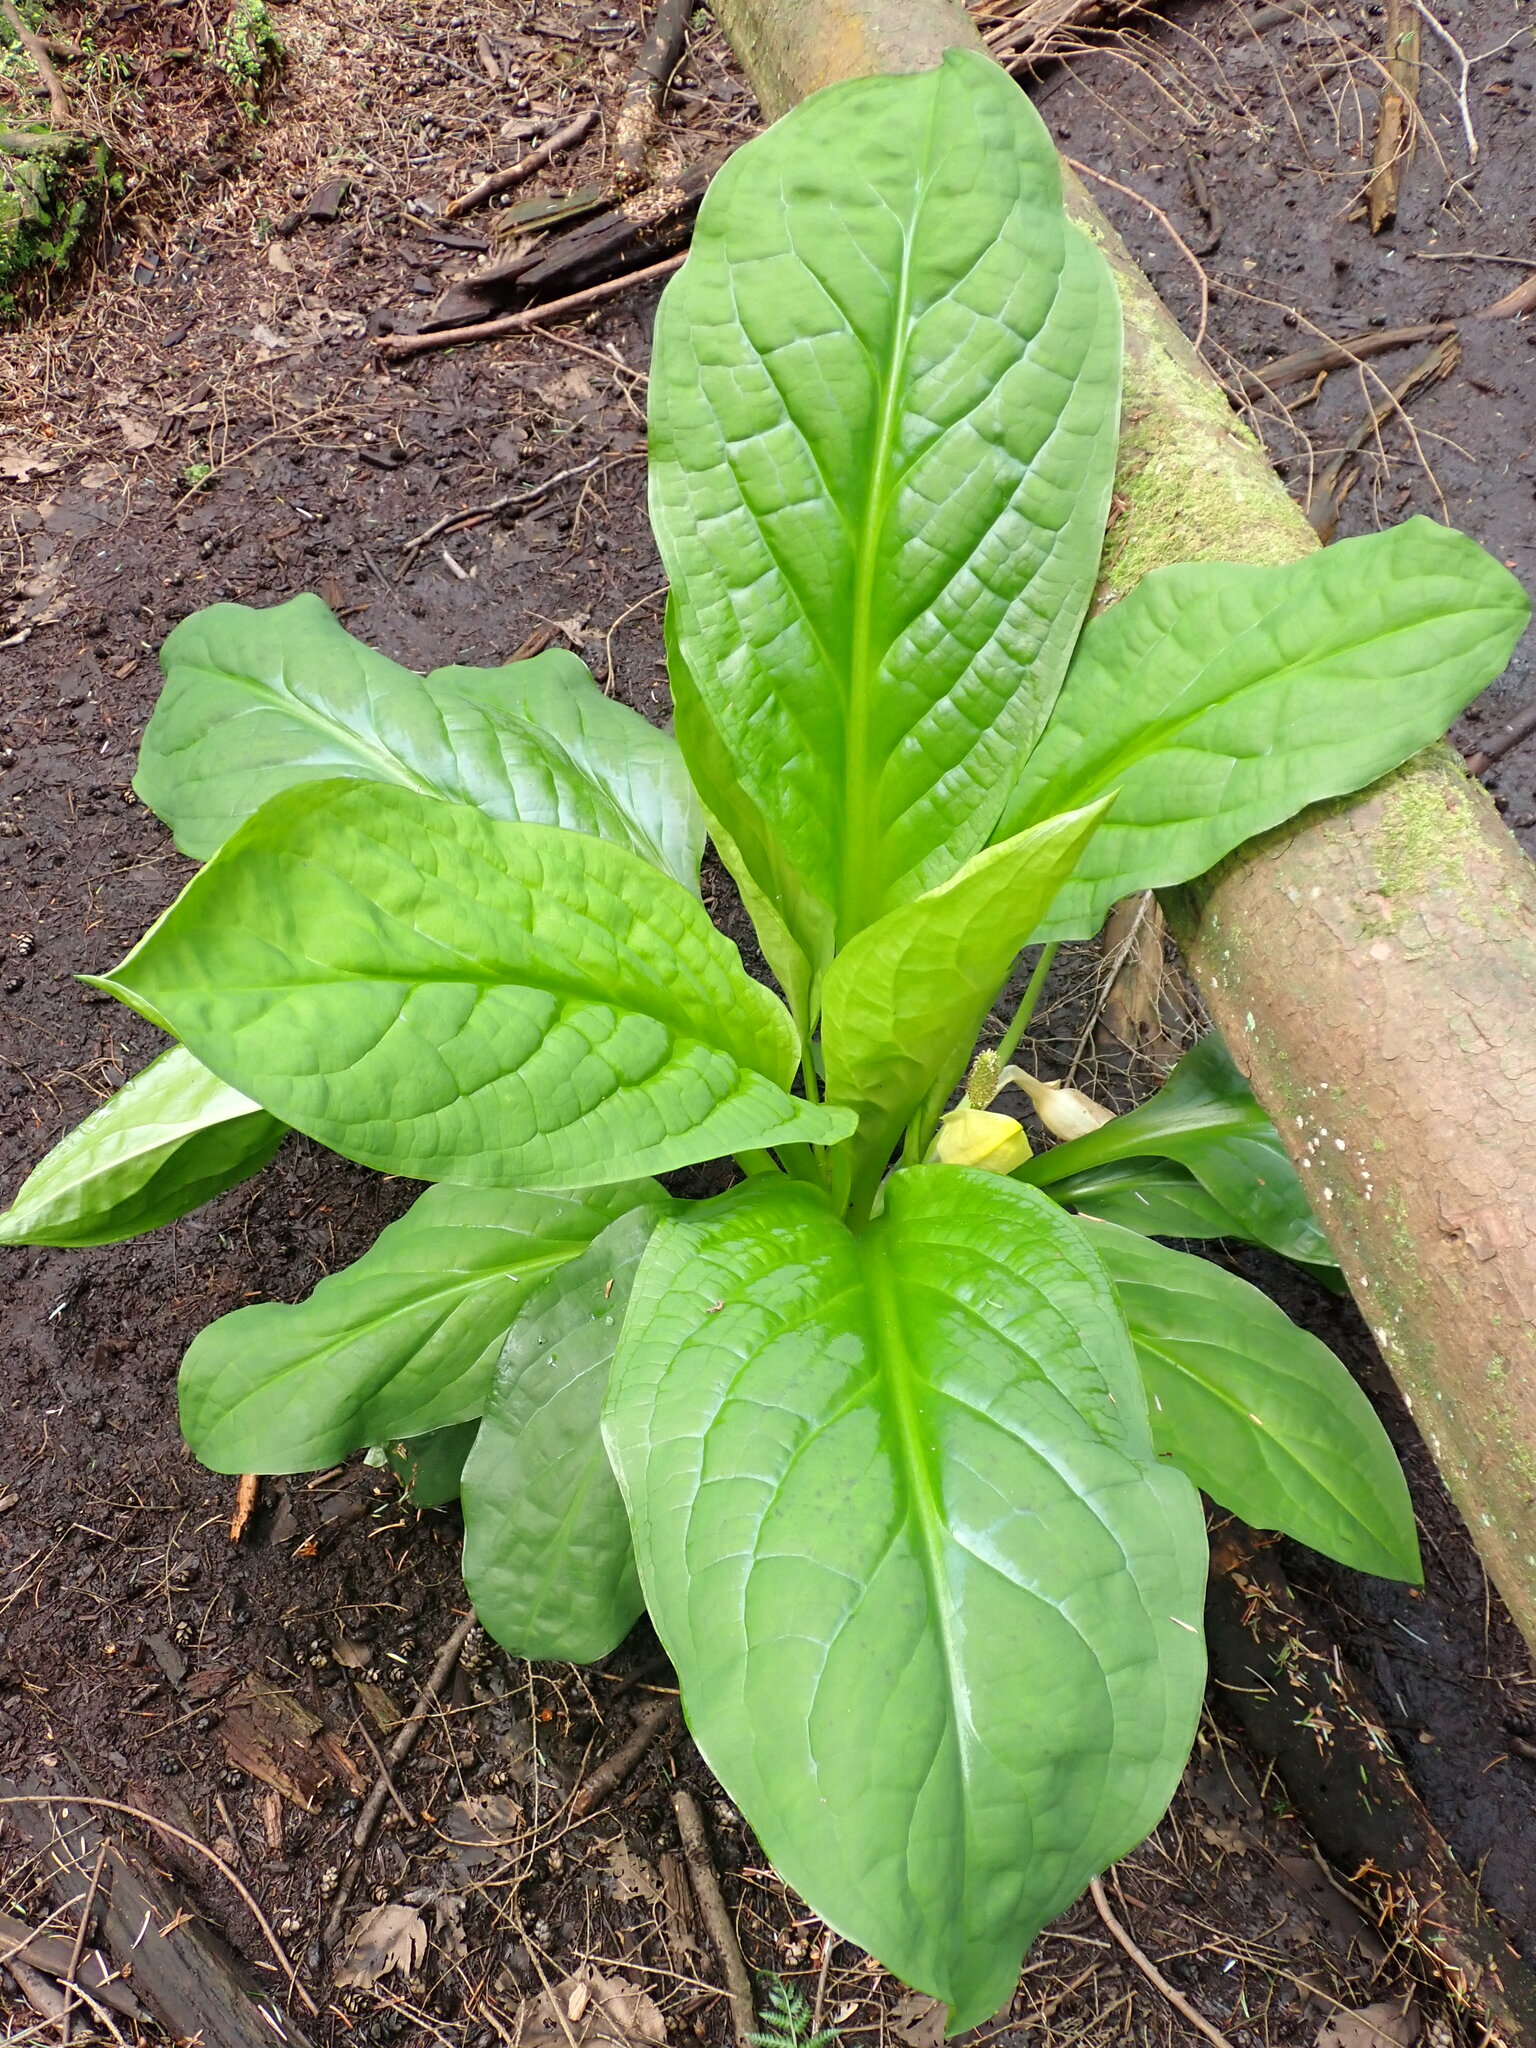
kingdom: Plantae
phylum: Tracheophyta
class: Liliopsida
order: Alismatales
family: Araceae
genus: Lysichiton
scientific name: Lysichiton americanus
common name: American skunk cabbage
